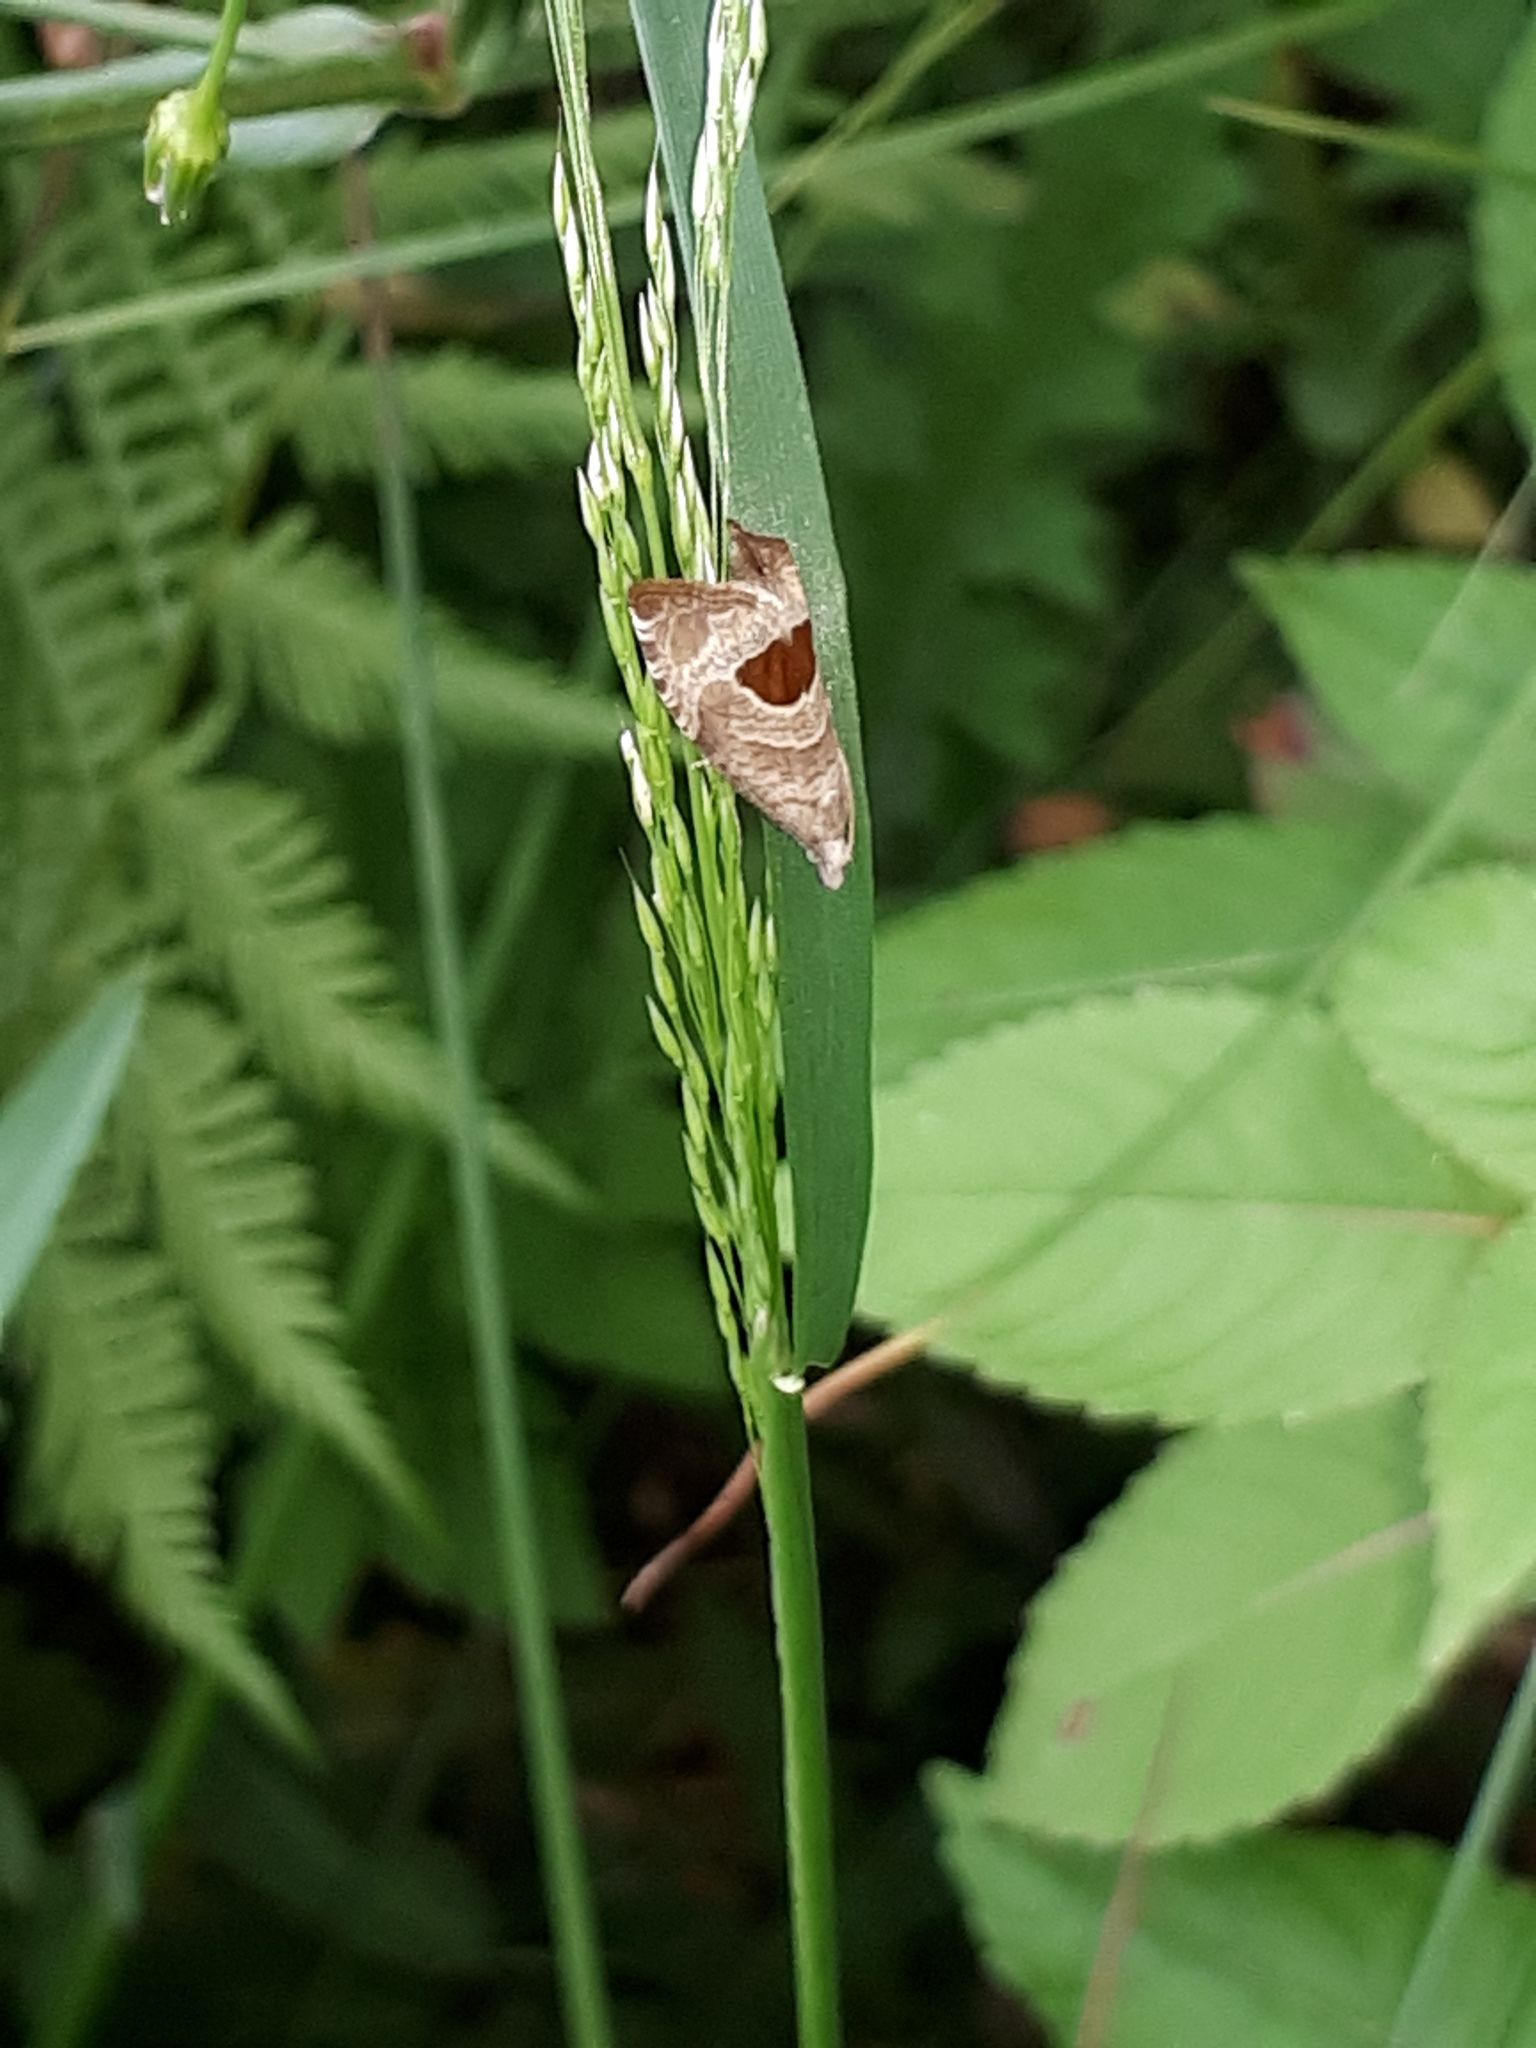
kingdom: Animalia
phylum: Arthropoda
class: Insecta
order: Lepidoptera
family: Tortricidae
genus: Notocelia
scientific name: Notocelia uddmanniana
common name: Bramble shoot moth
